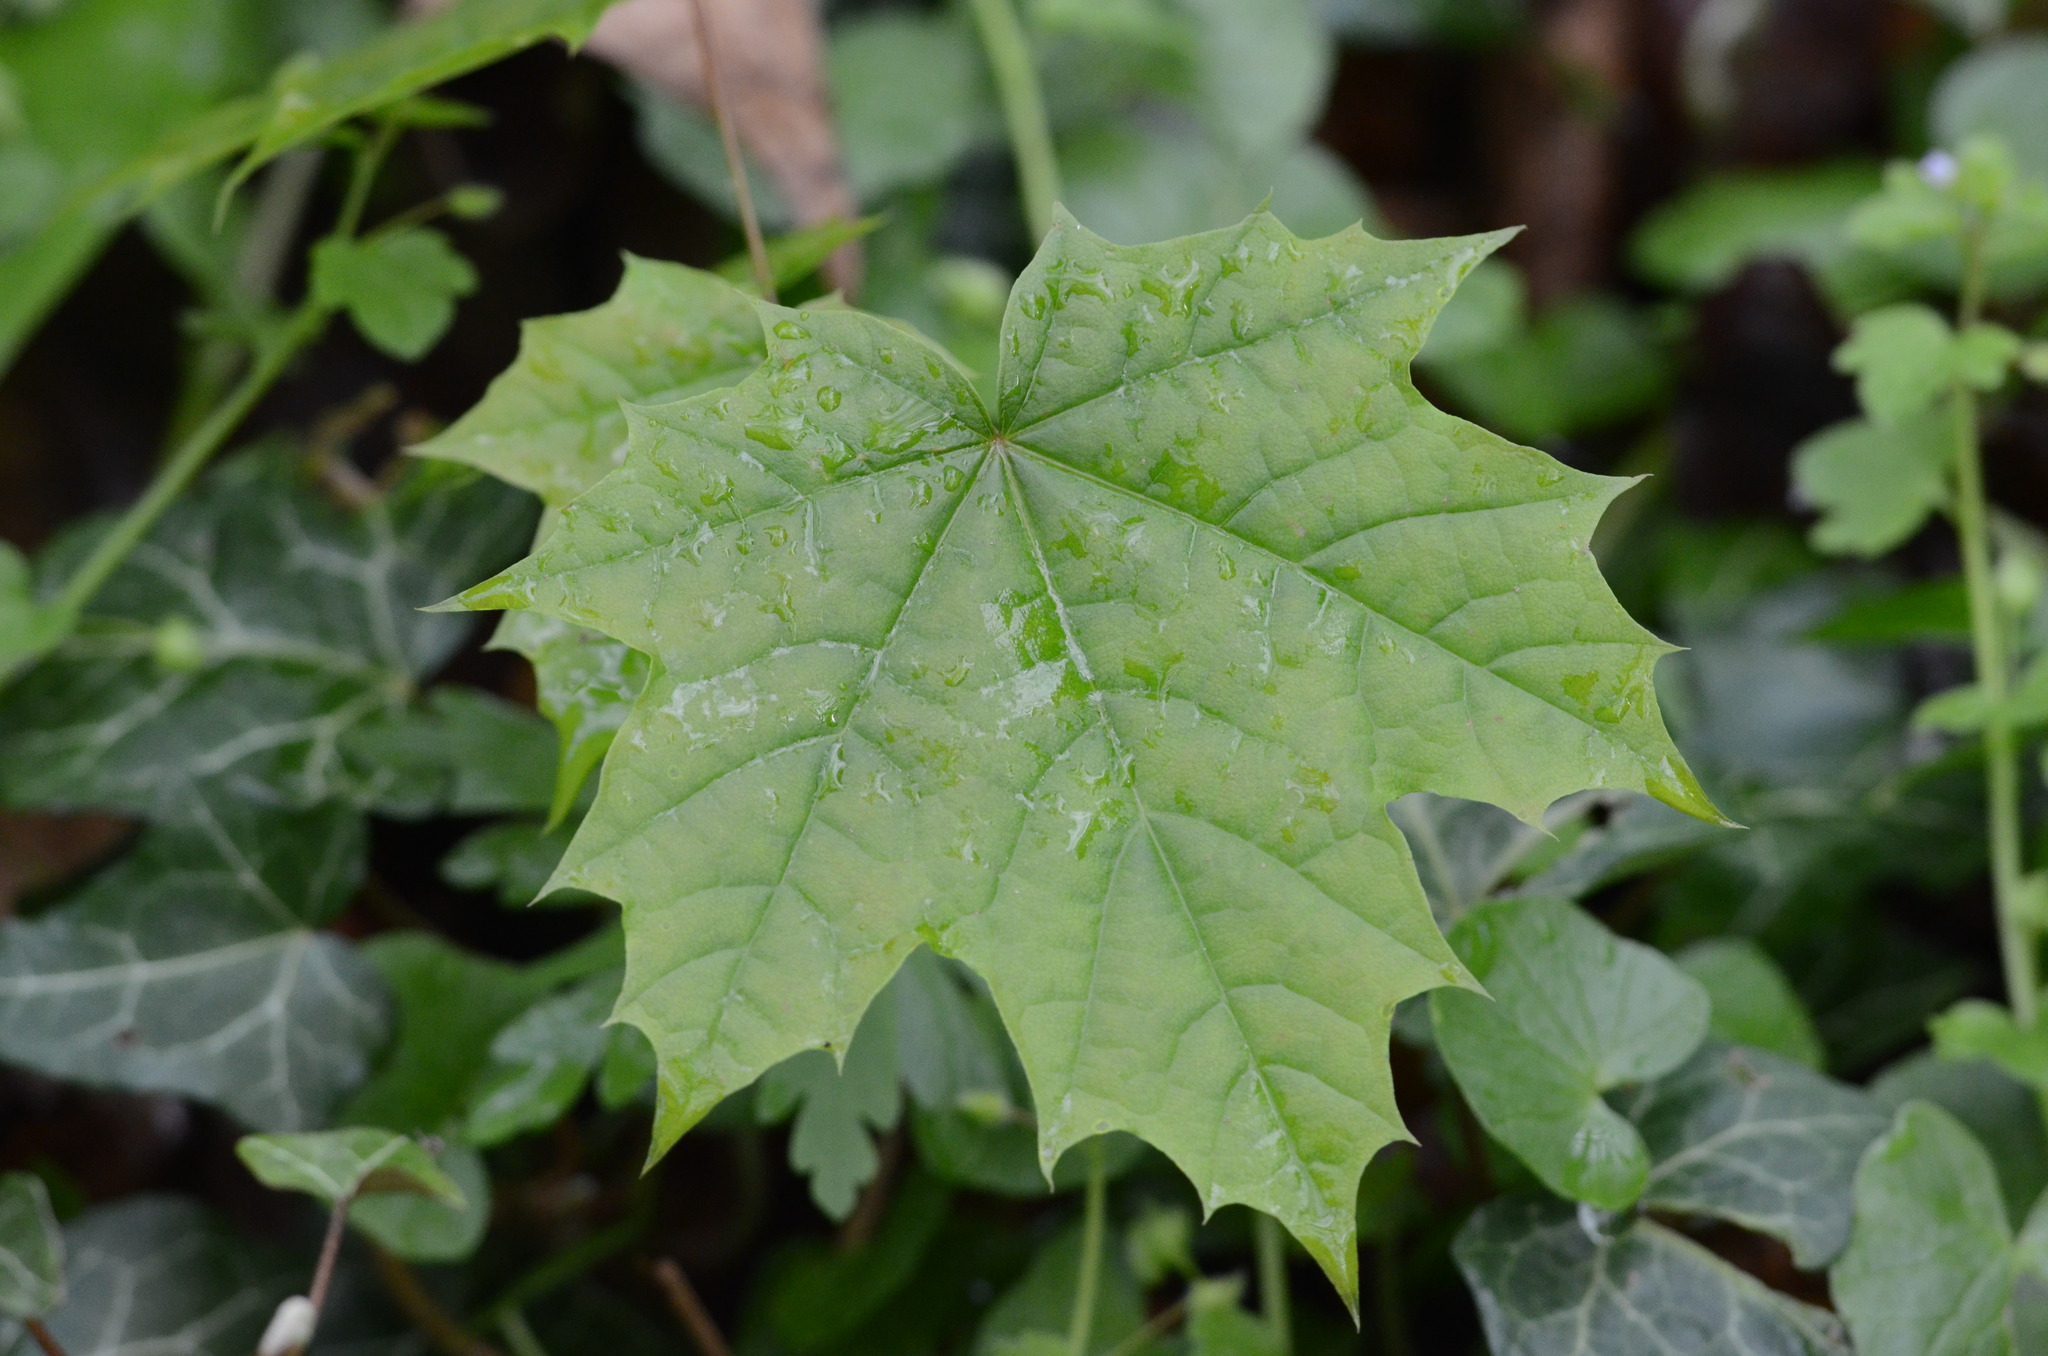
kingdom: Plantae
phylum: Tracheophyta
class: Magnoliopsida
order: Sapindales
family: Sapindaceae
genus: Acer
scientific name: Acer platanoides
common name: Norway maple
